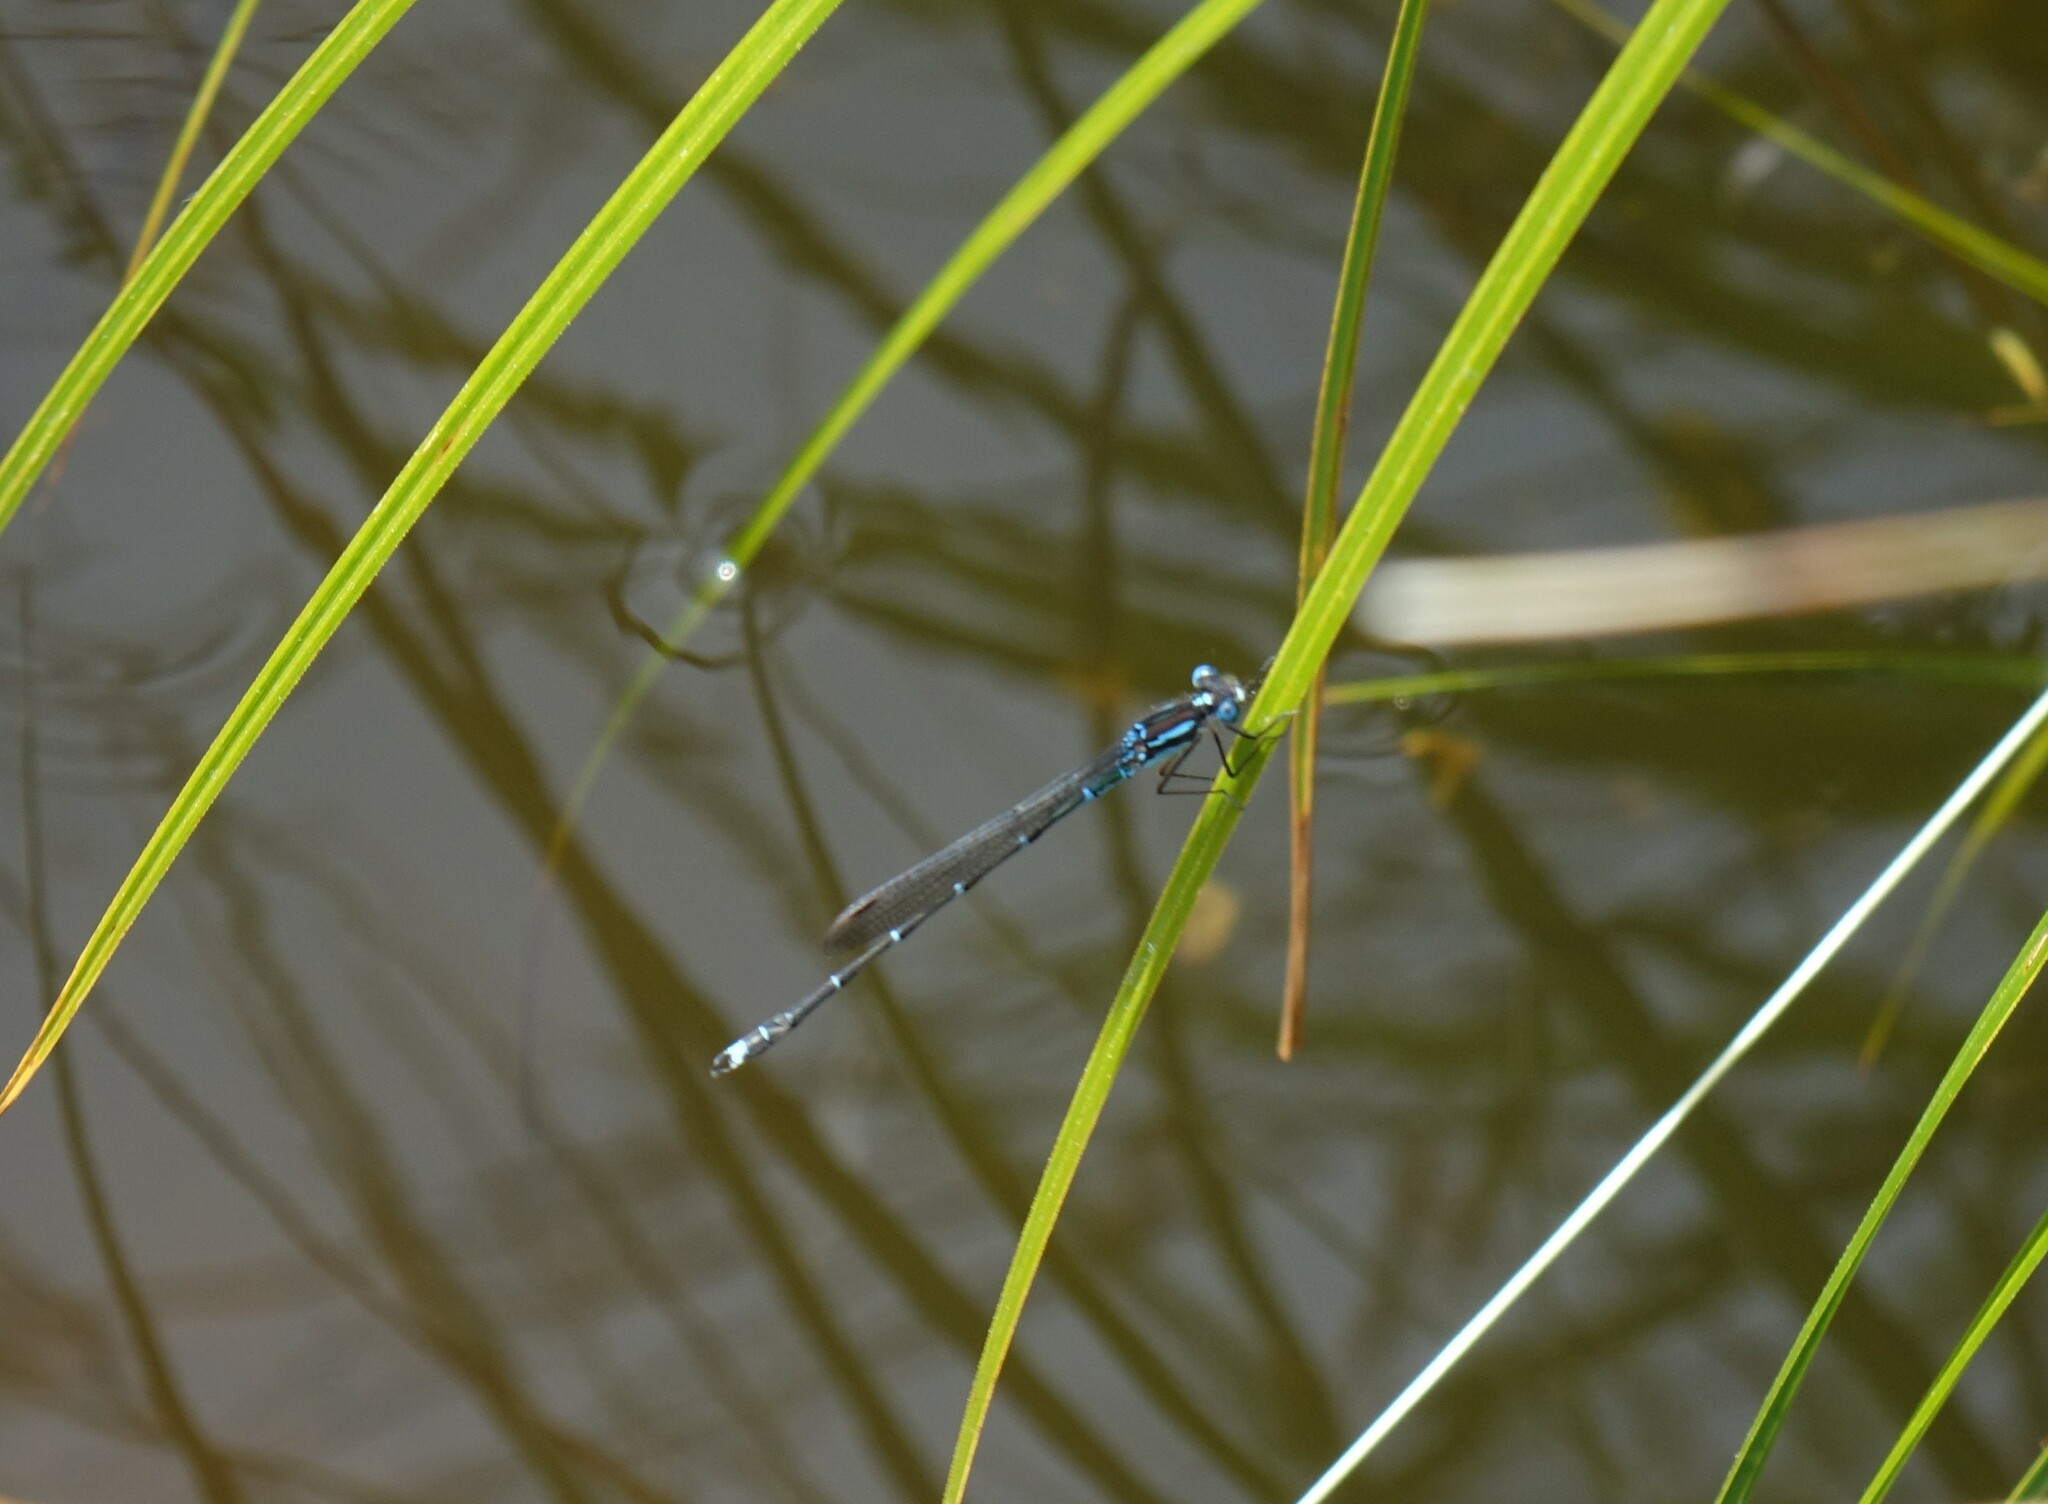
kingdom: Animalia
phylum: Arthropoda
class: Insecta
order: Odonata
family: Lestidae
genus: Austrolestes
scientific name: Austrolestes colensonis
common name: Blue damselfly
